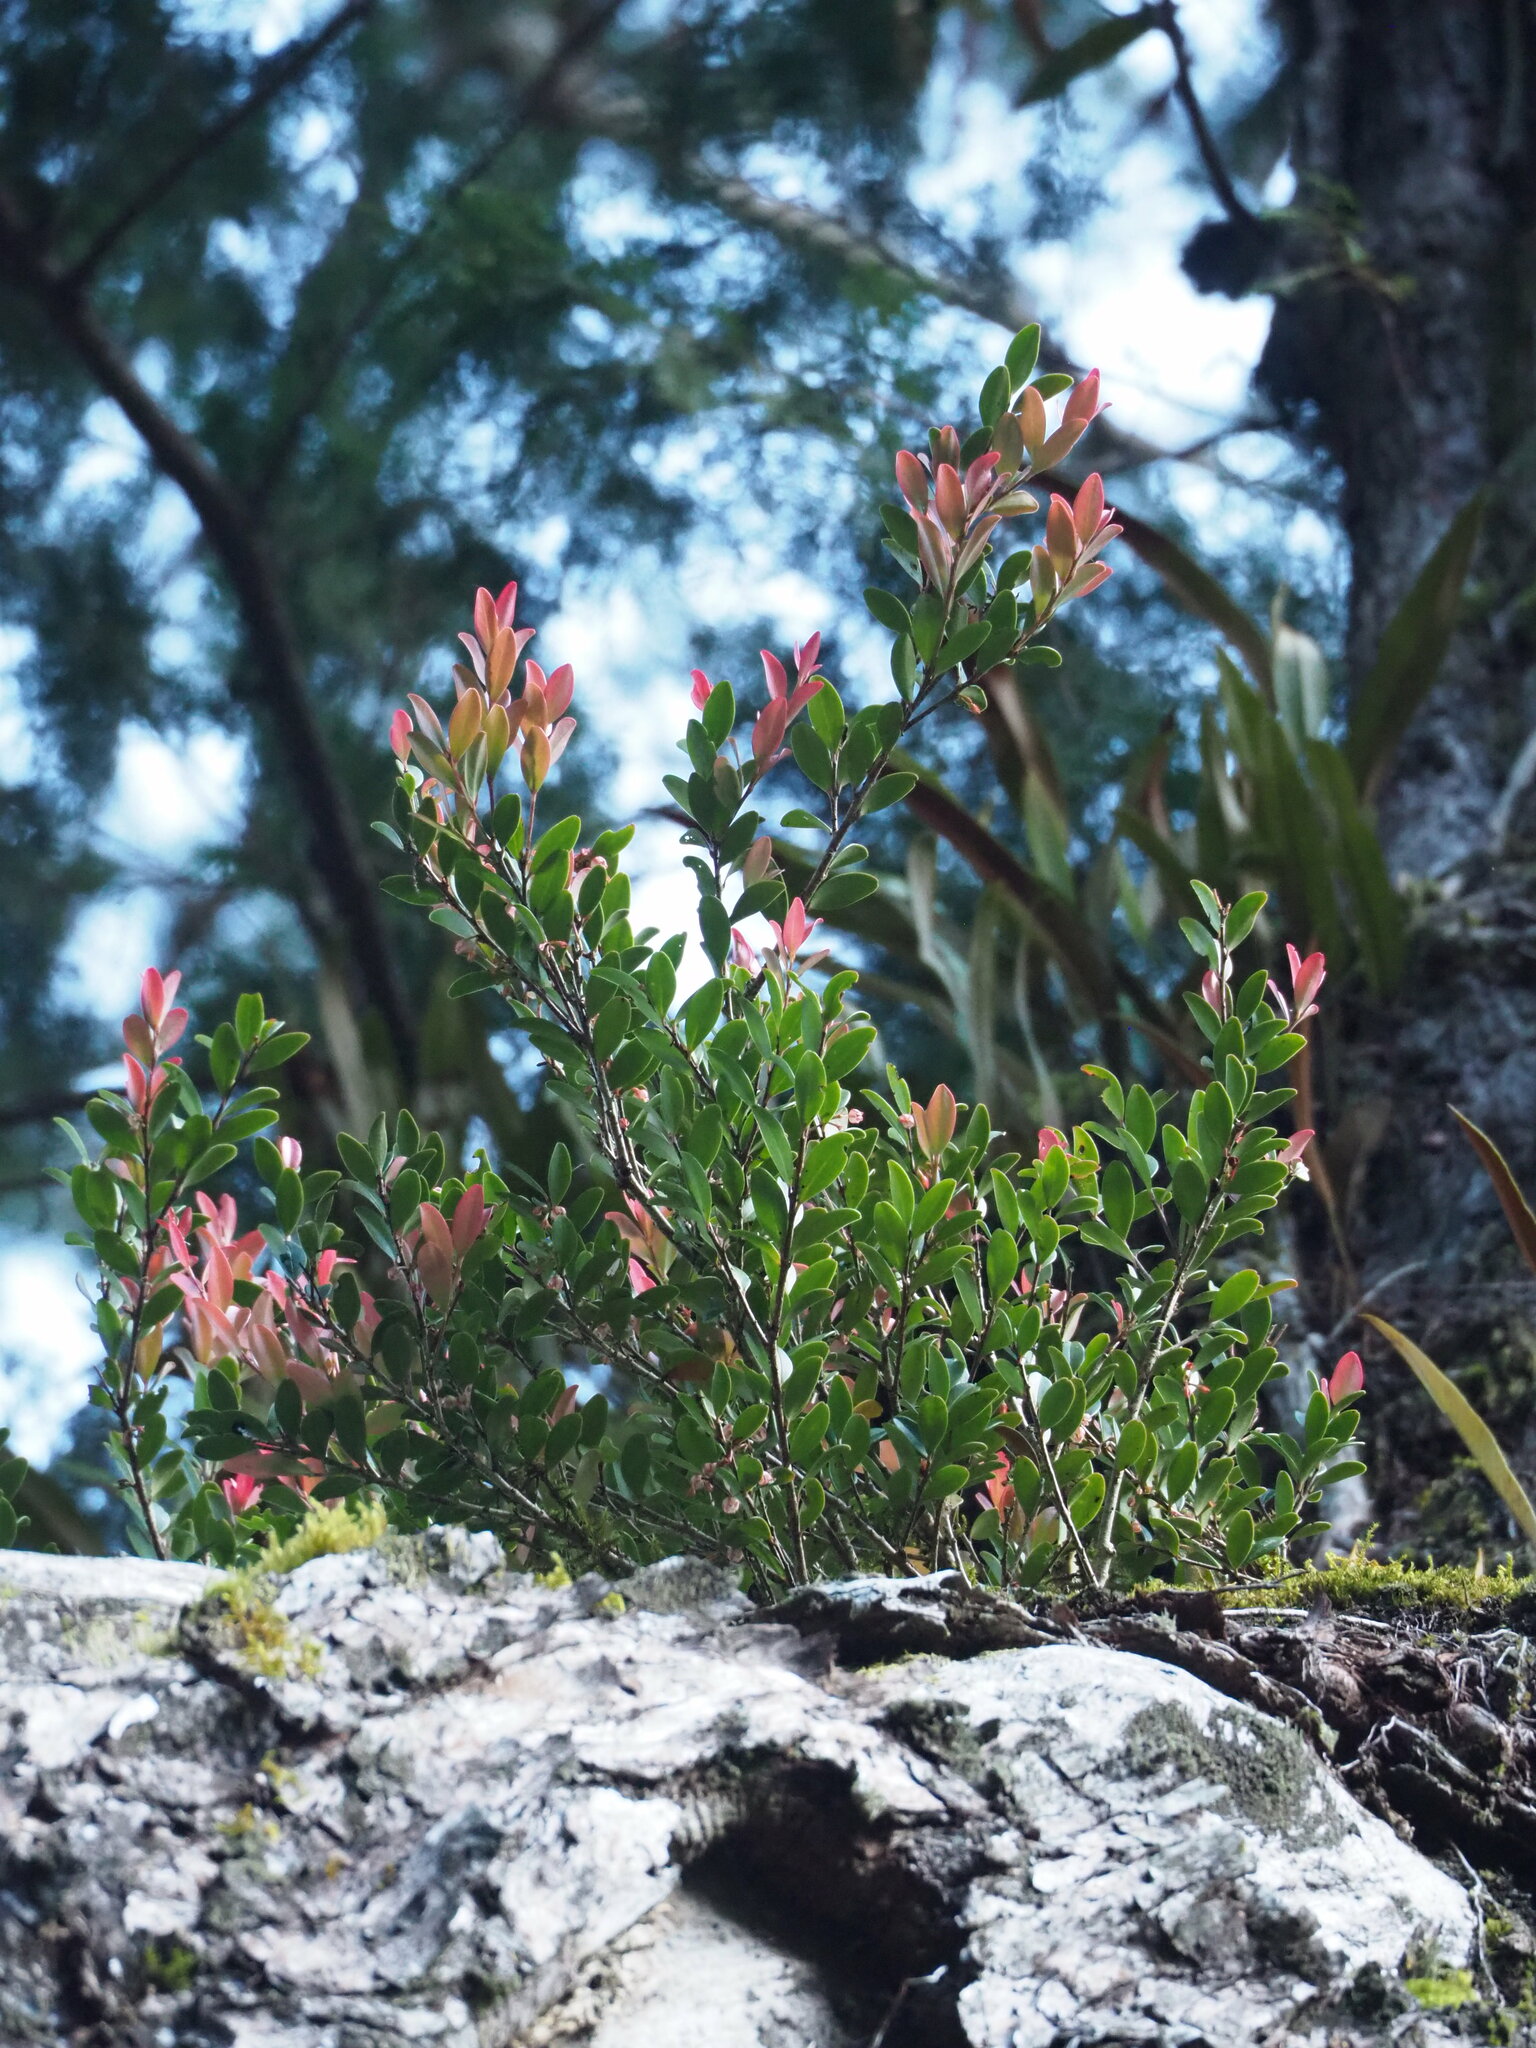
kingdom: Plantae
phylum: Tracheophyta
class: Magnoliopsida
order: Ericales
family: Ericaceae
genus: Vaccinium
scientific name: Vaccinium emarginatum
